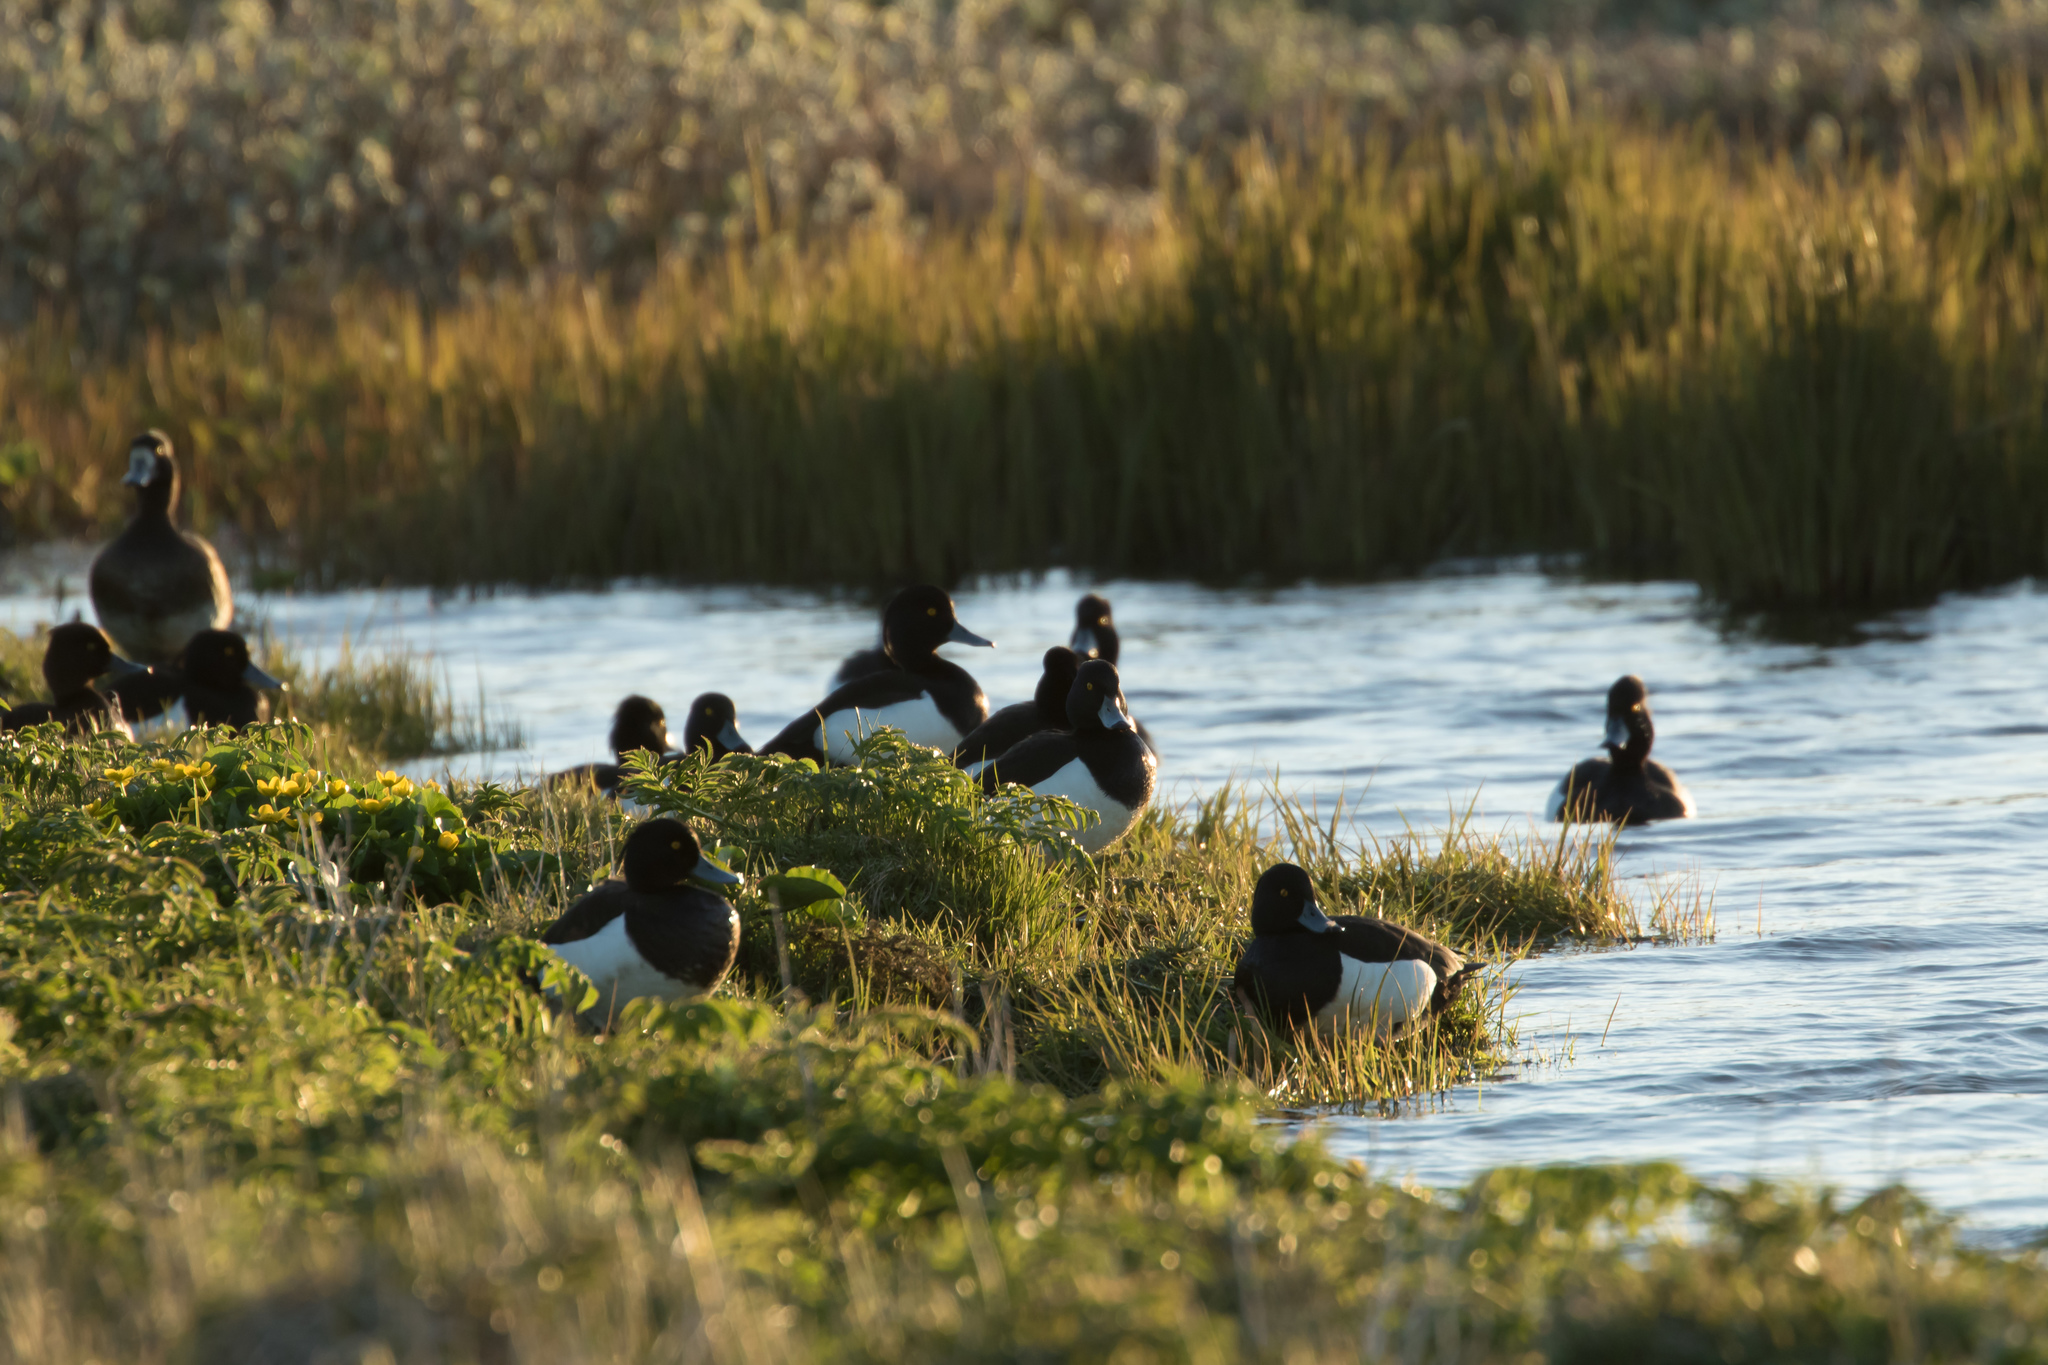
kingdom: Animalia
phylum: Chordata
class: Aves
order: Anseriformes
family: Anatidae
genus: Aythya
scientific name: Aythya fuligula
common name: Tufted duck
